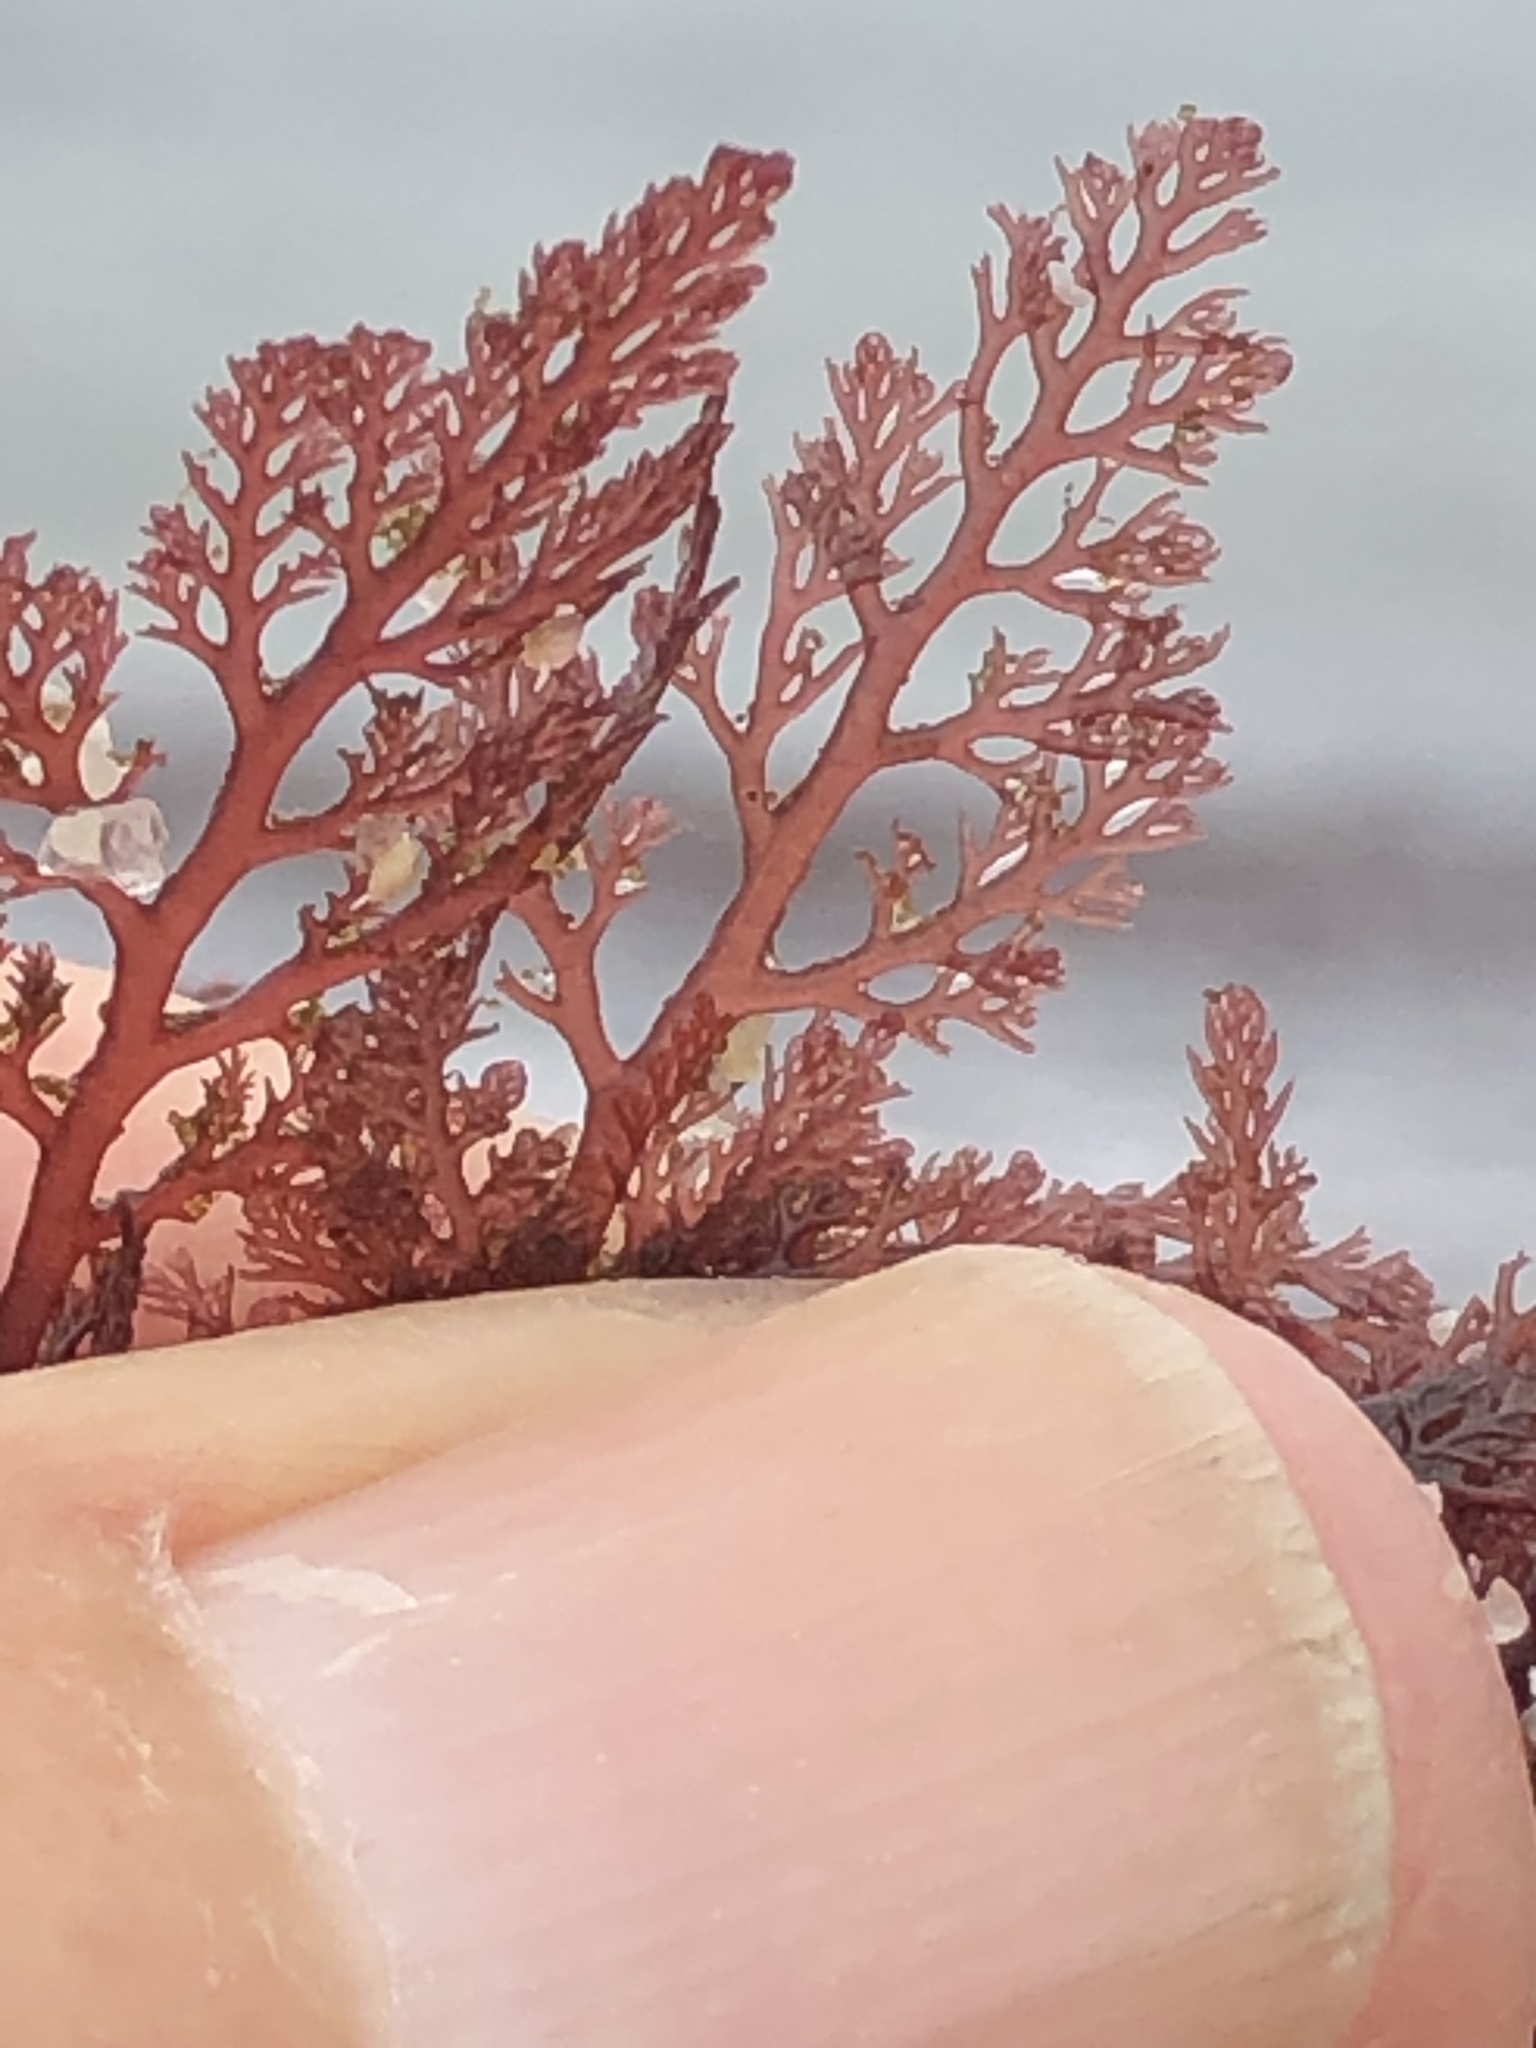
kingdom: Plantae
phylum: Rhodophyta
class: Florideophyceae
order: Ceramiales
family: Ceramiaceae
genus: Microcladia
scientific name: Microcladia coulteri
